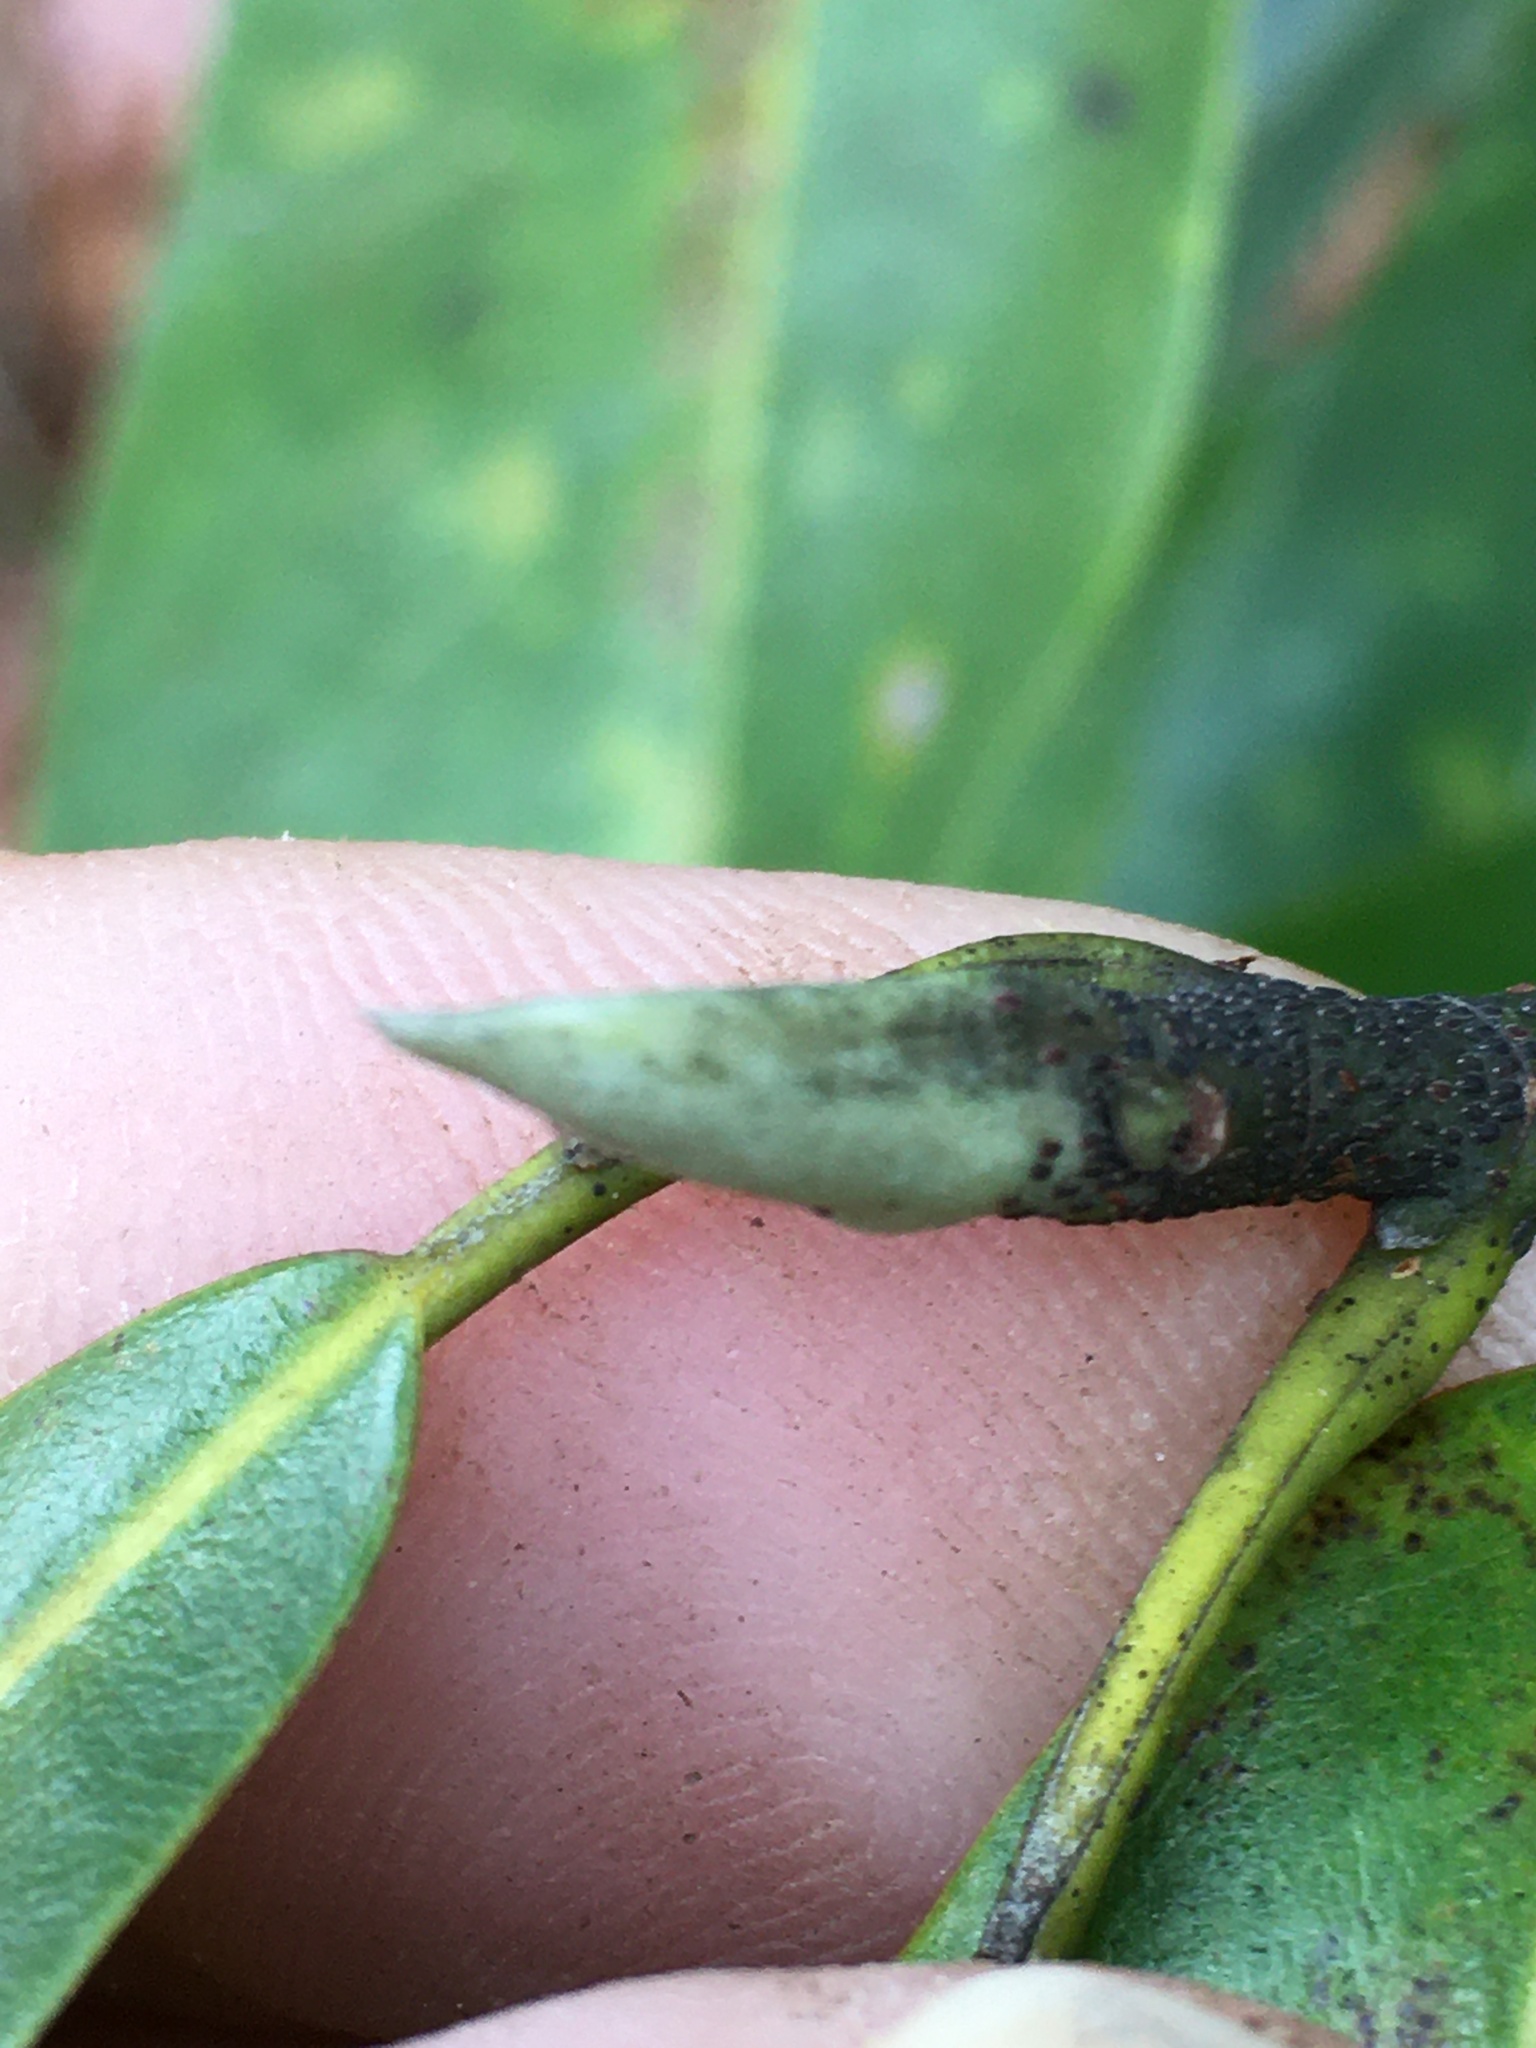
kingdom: Plantae
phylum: Tracheophyta
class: Magnoliopsida
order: Magnoliales
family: Magnoliaceae
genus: Magnolia
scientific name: Magnolia virginiana
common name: Swamp bay
